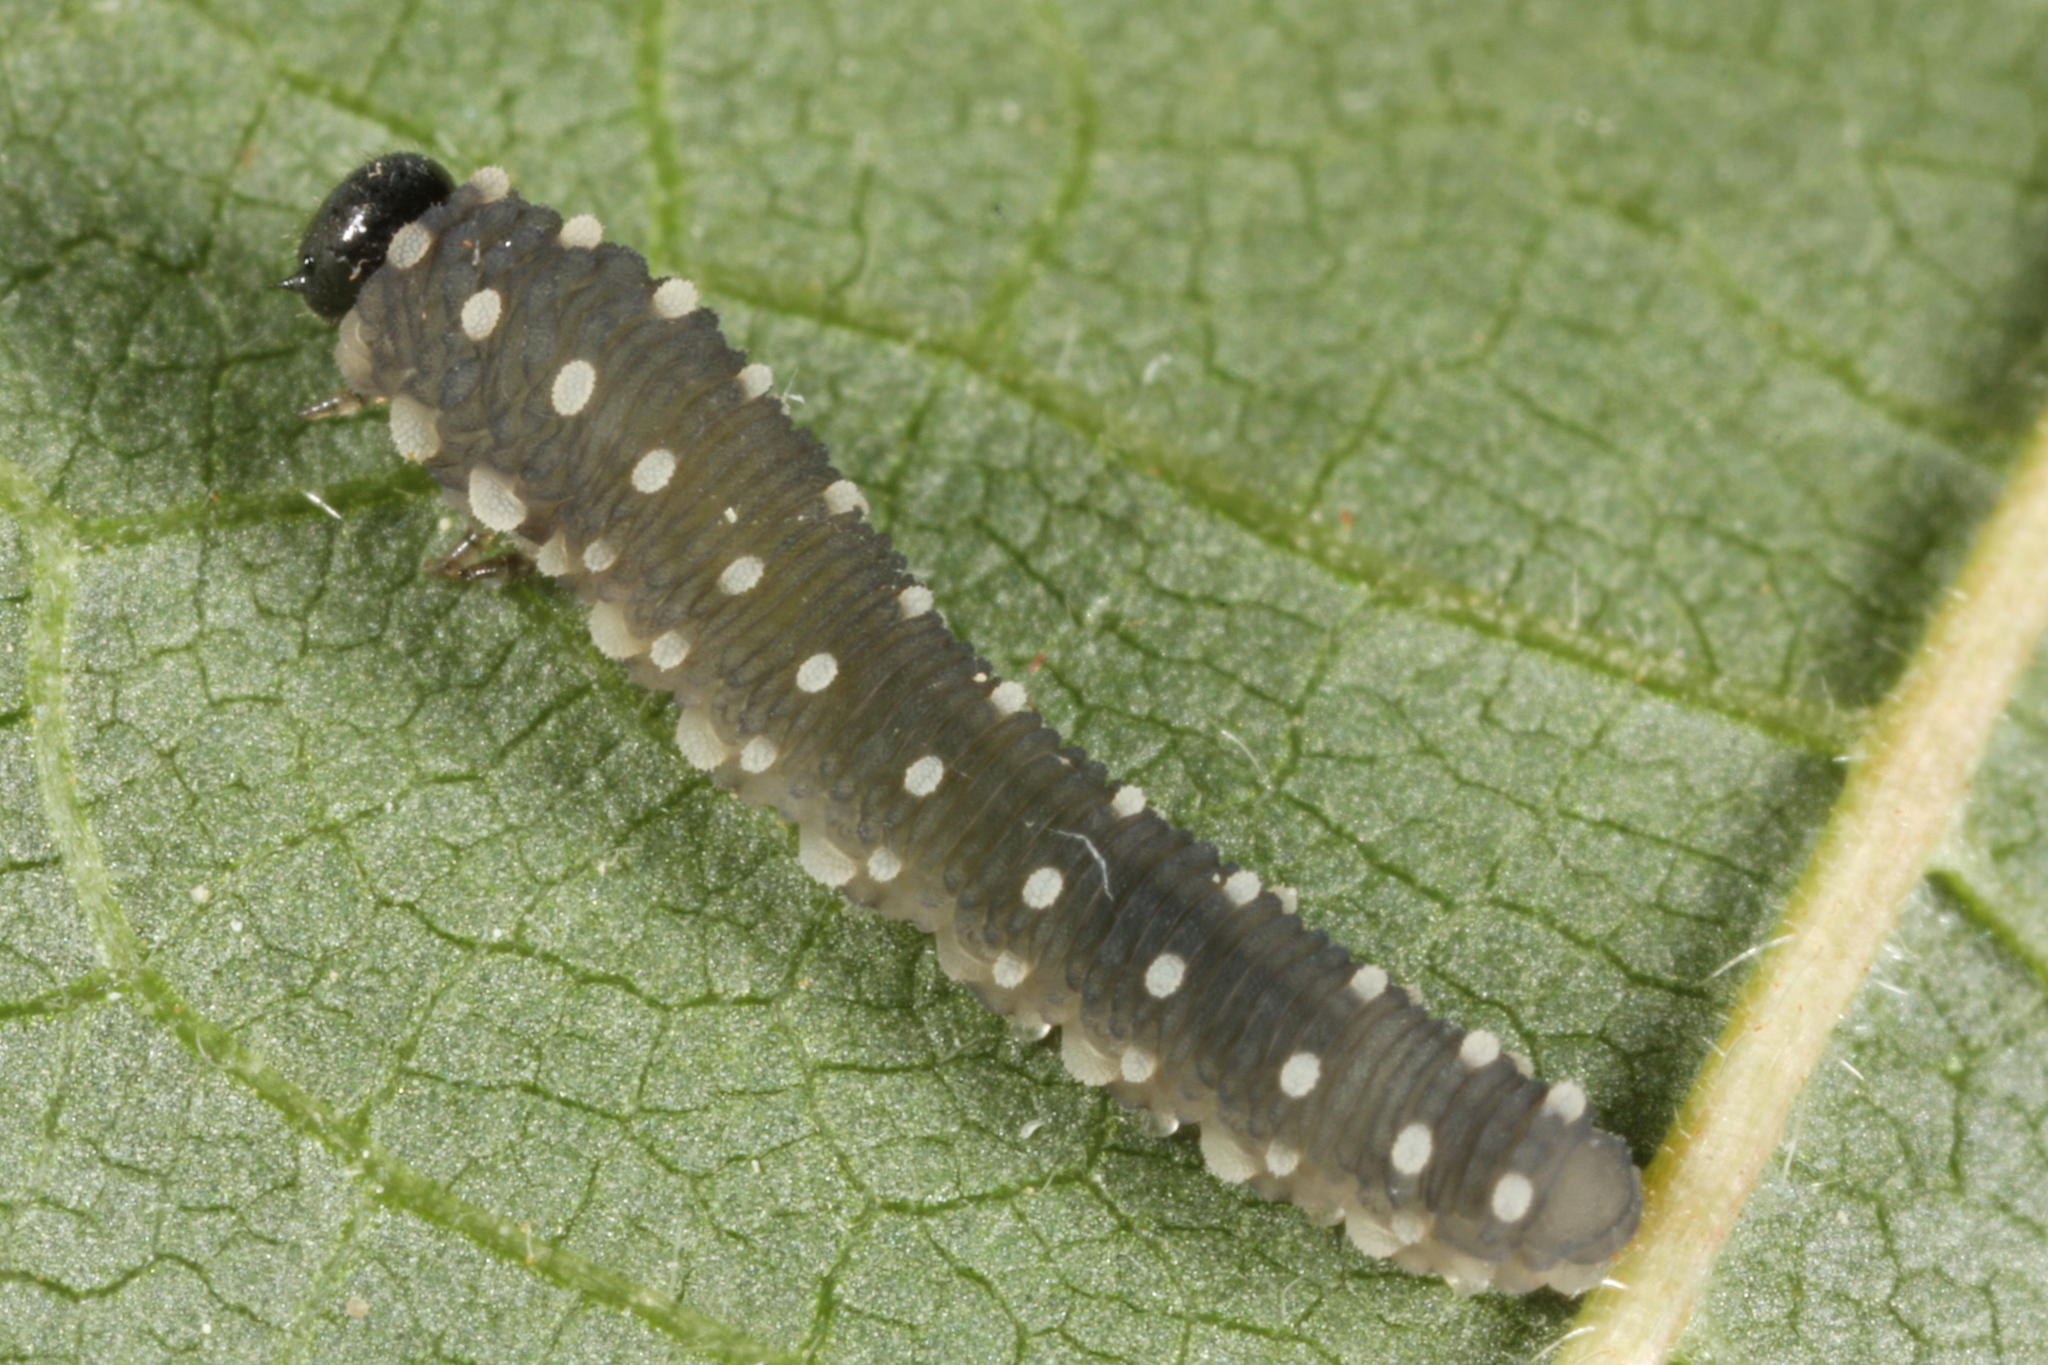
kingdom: Animalia
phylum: Arthropoda
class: Insecta
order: Hymenoptera
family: Tenthredinidae
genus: Athalia
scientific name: Athalia scutellariae
